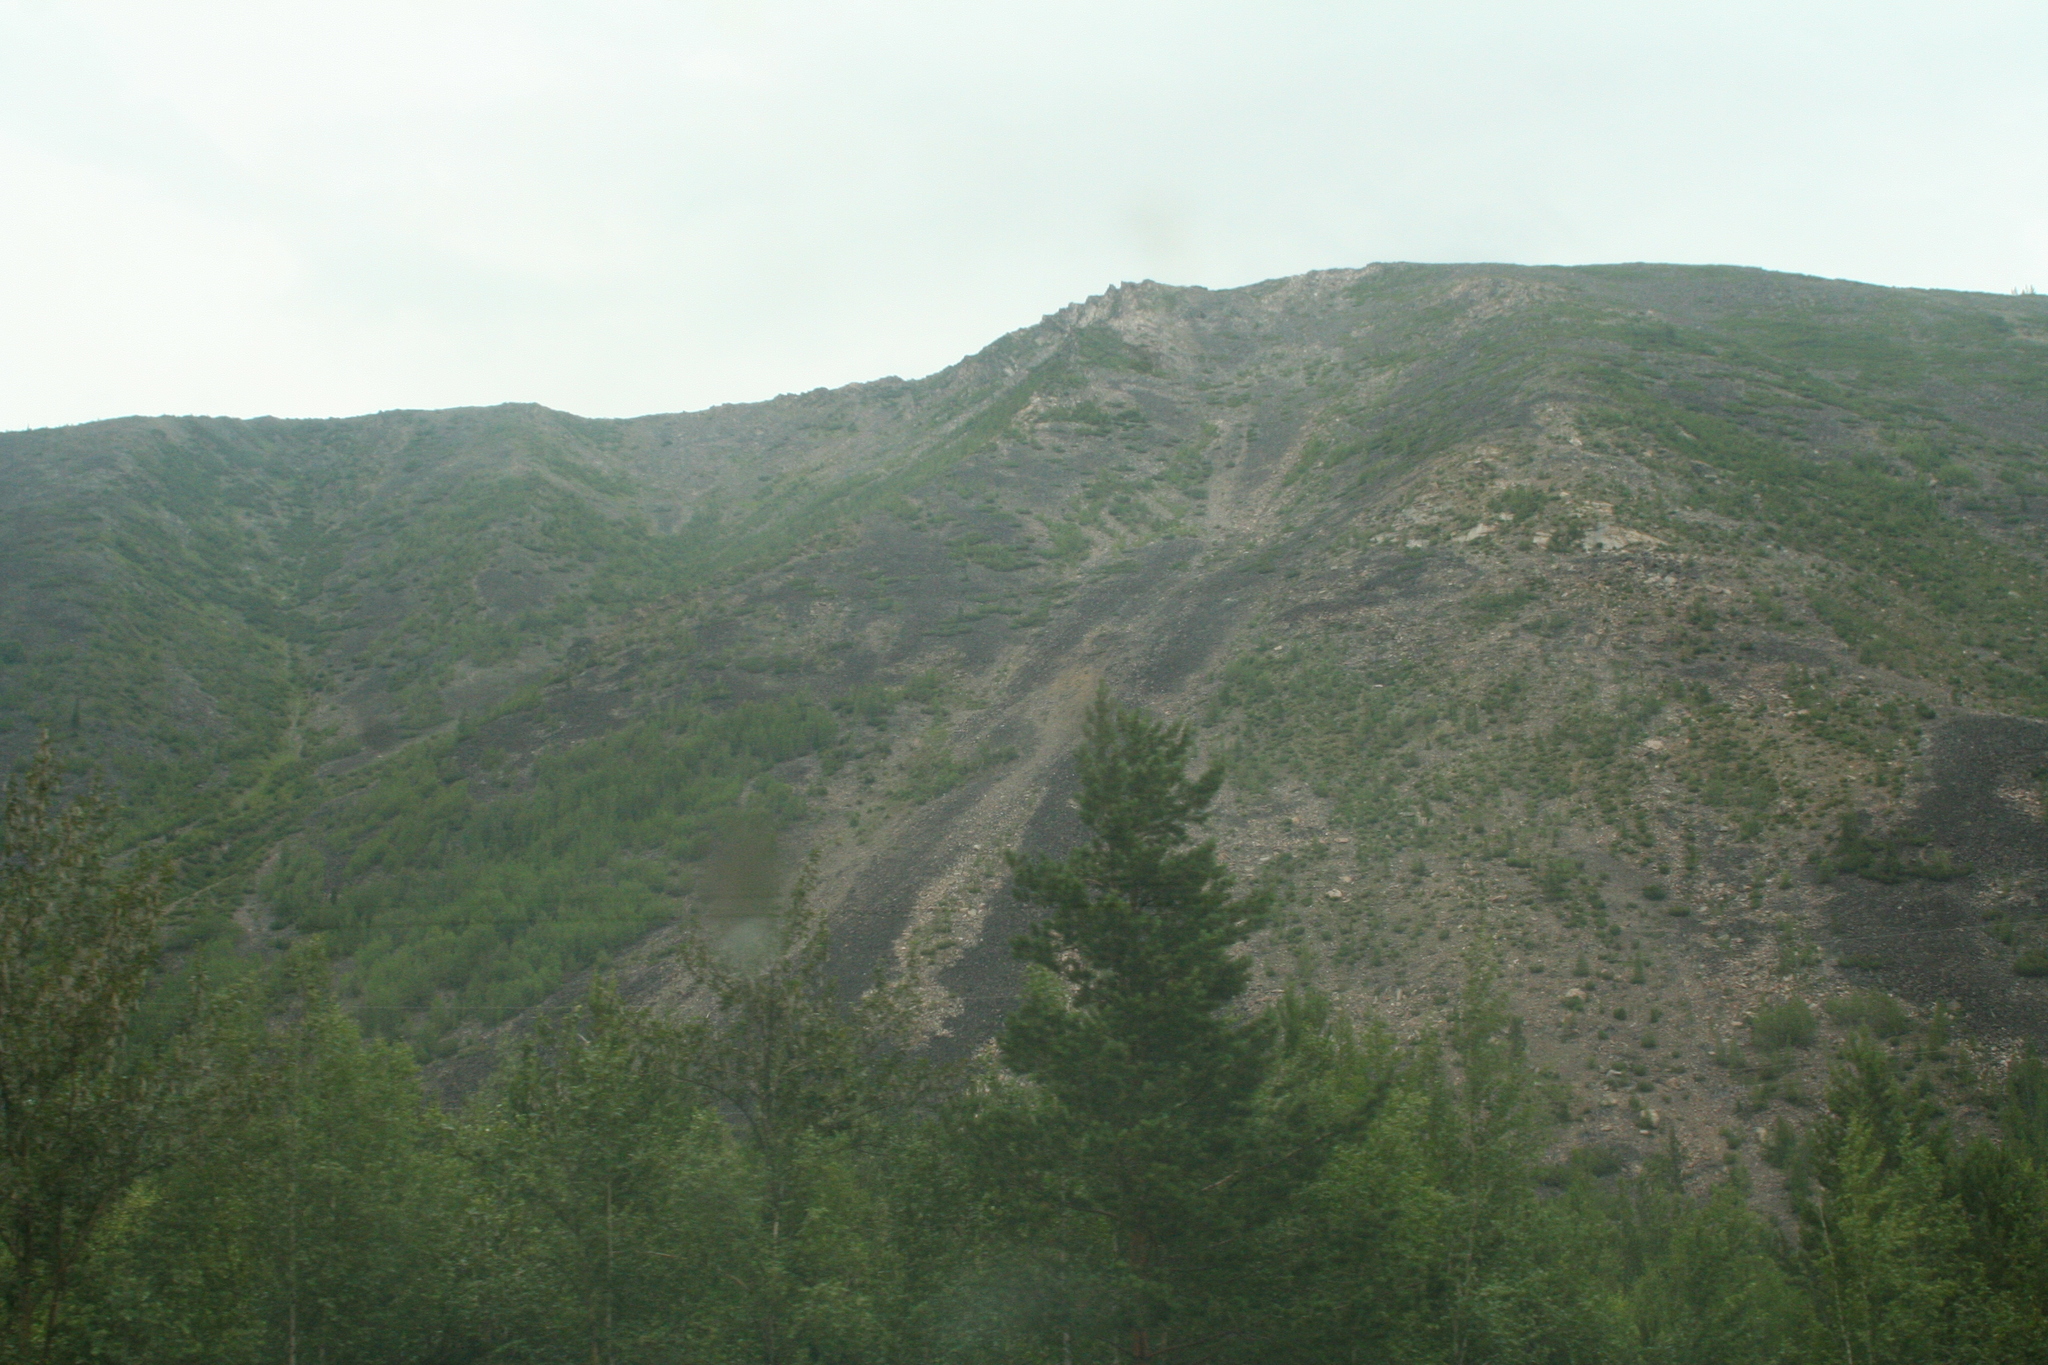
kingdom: Plantae
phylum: Tracheophyta
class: Pinopsida
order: Pinales
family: Pinaceae
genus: Pinus
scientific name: Pinus sibirica
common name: Siberian pine
